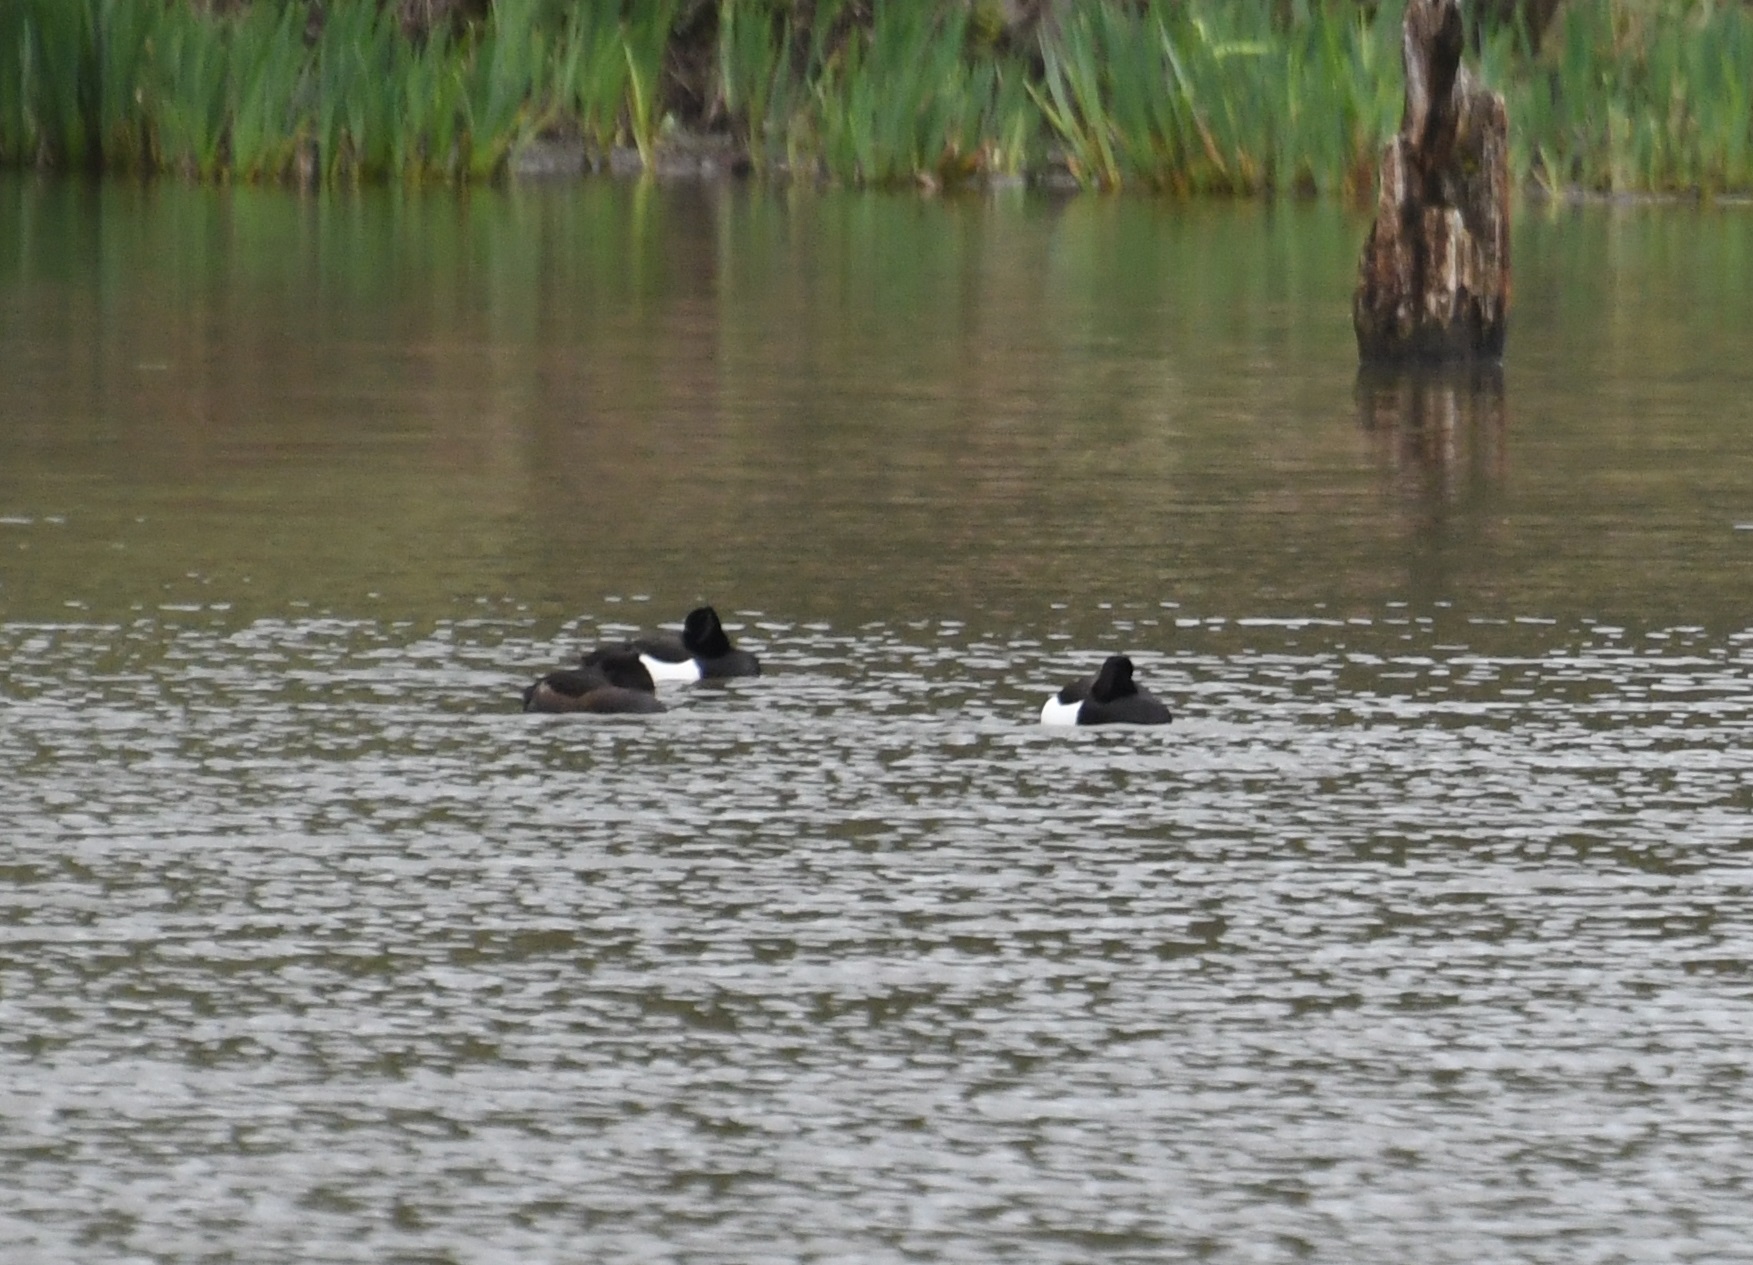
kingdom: Animalia
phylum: Chordata
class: Aves
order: Anseriformes
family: Anatidae
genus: Aythya
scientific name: Aythya fuligula
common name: Tufted duck
